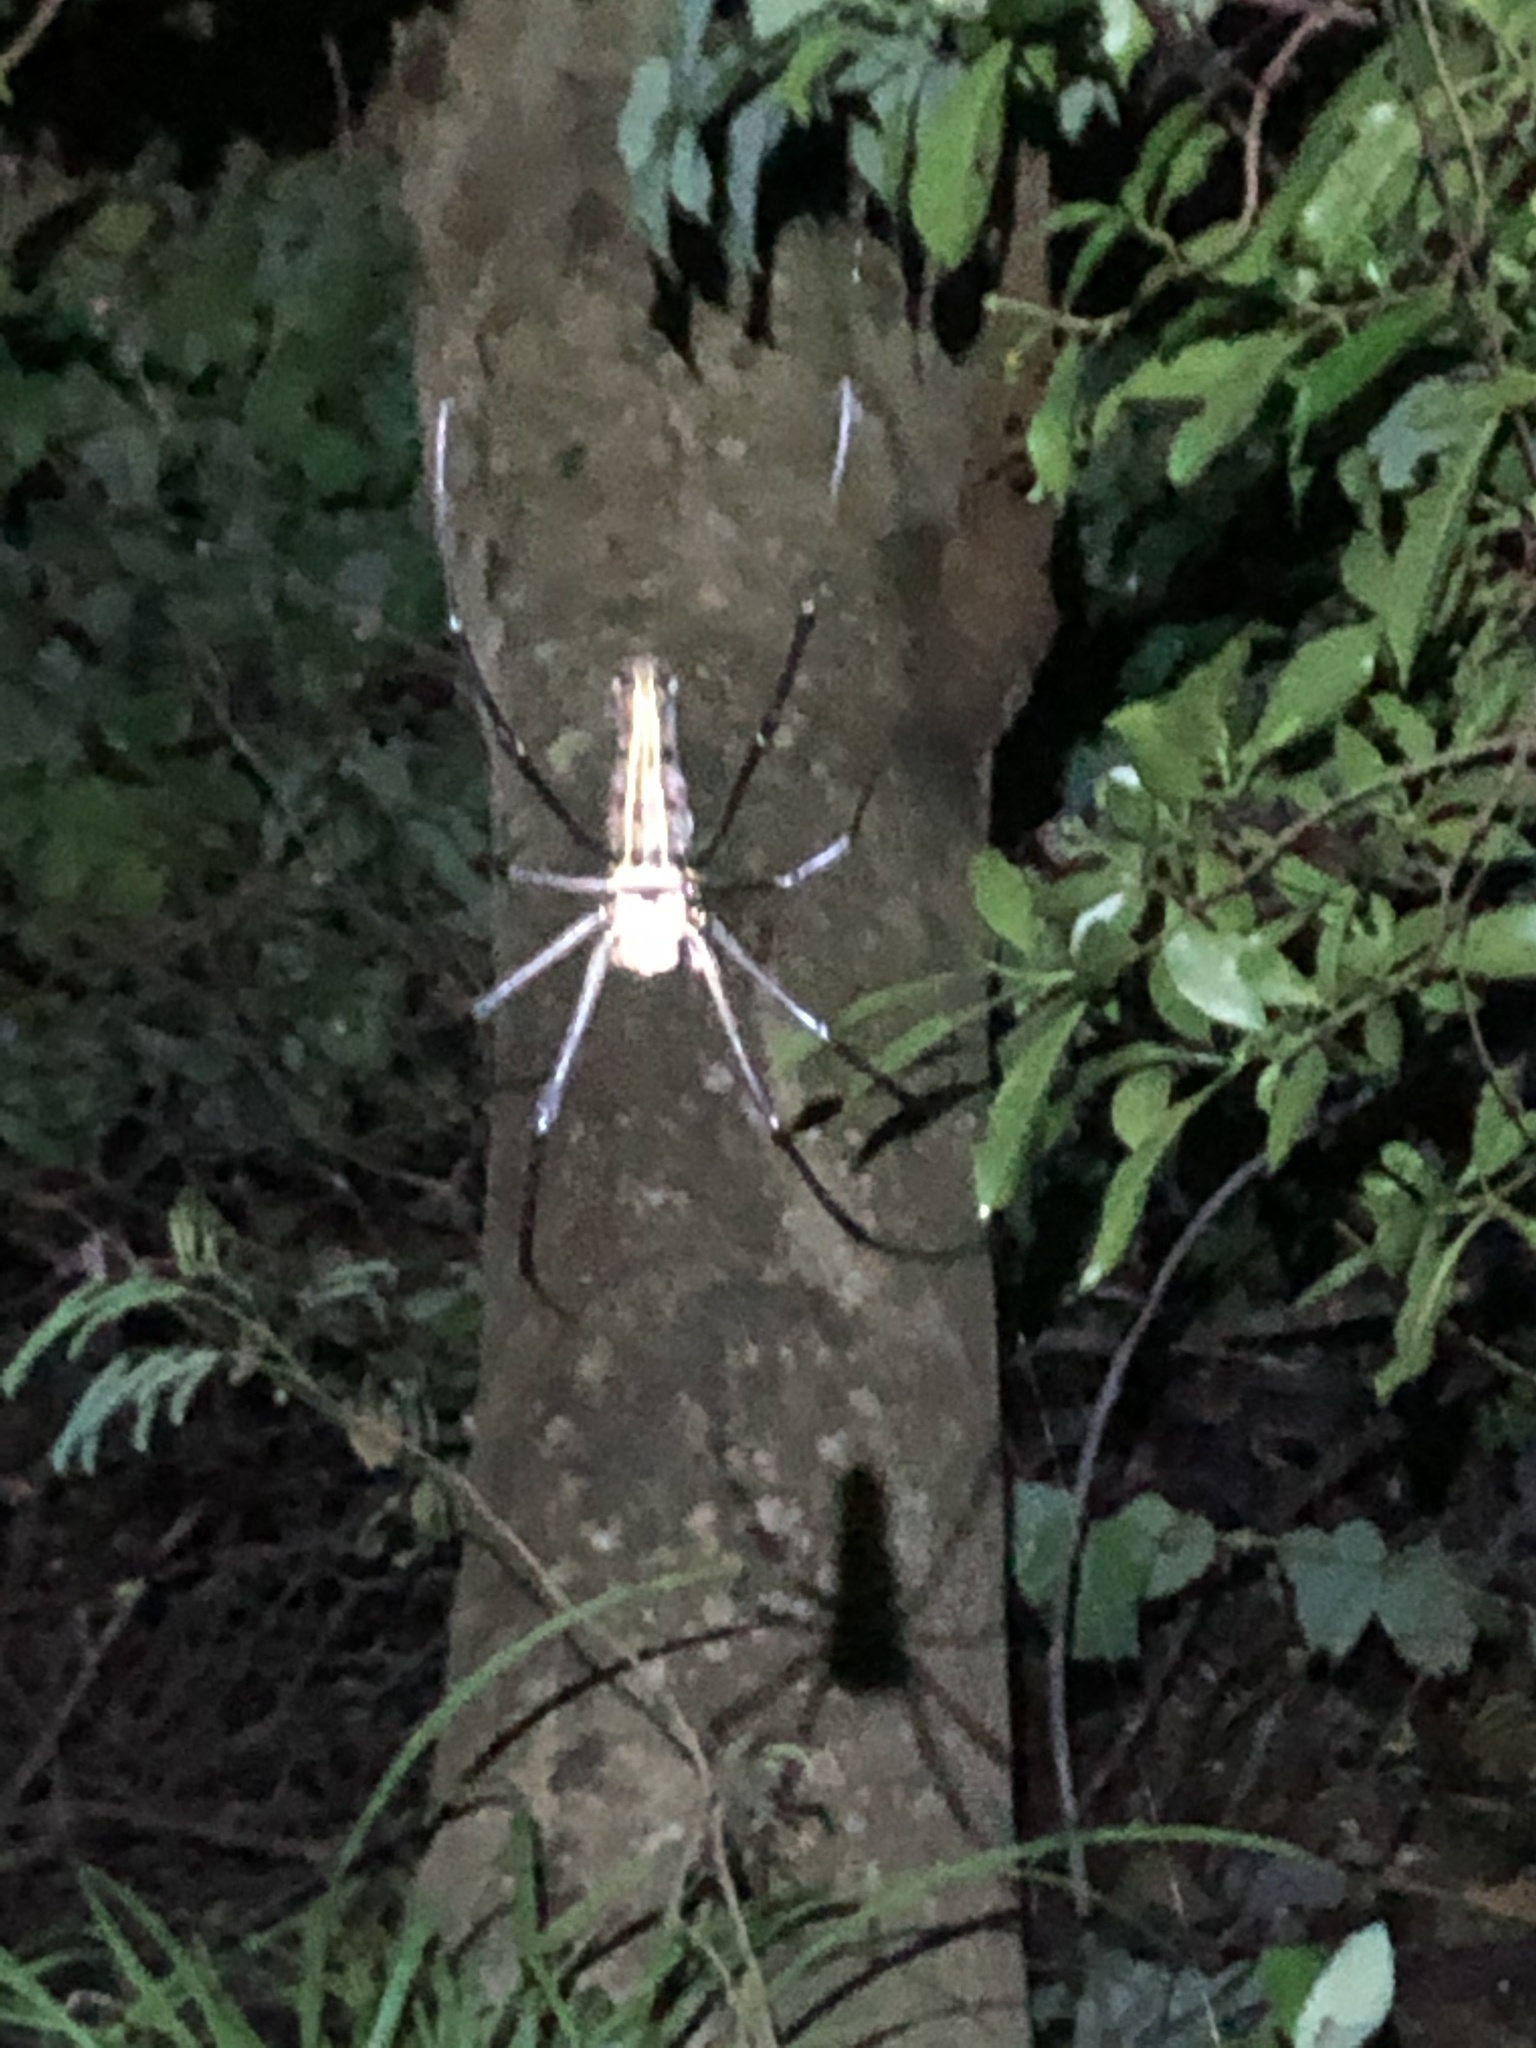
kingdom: Animalia
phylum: Arthropoda
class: Arachnida
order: Araneae
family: Araneidae
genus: Nephila
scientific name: Nephila pilipes
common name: Giant golden orb weaver
